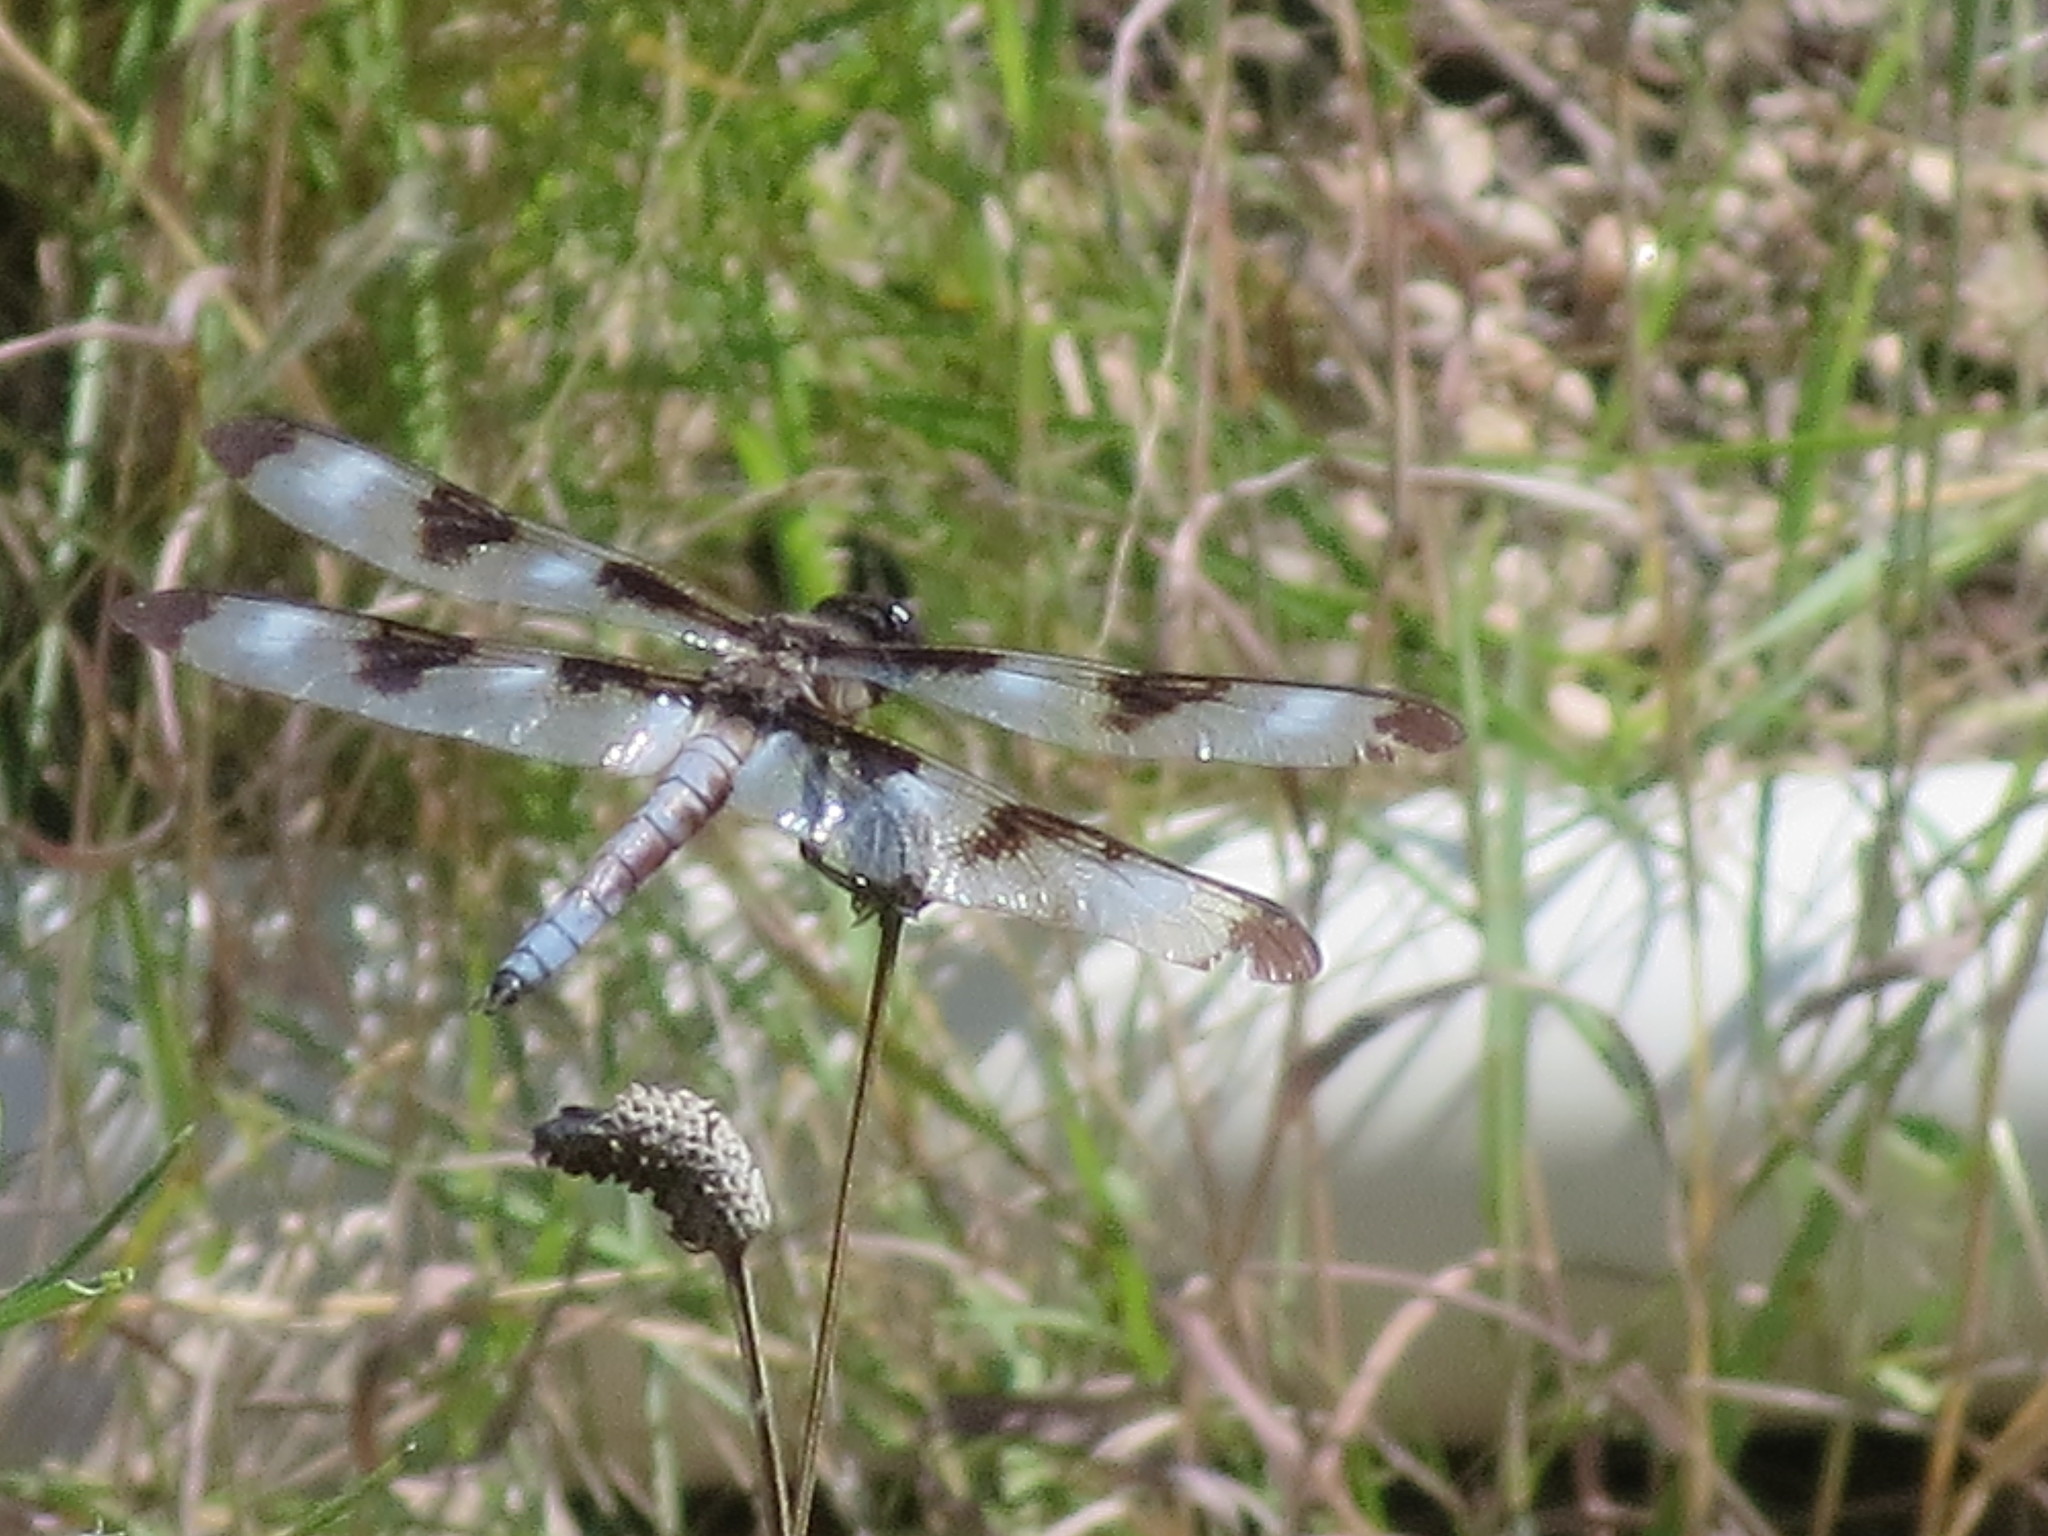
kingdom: Animalia
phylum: Arthropoda
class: Insecta
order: Odonata
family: Libellulidae
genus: Libellula
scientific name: Libellula pulchella
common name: Twelve-spotted skimmer
